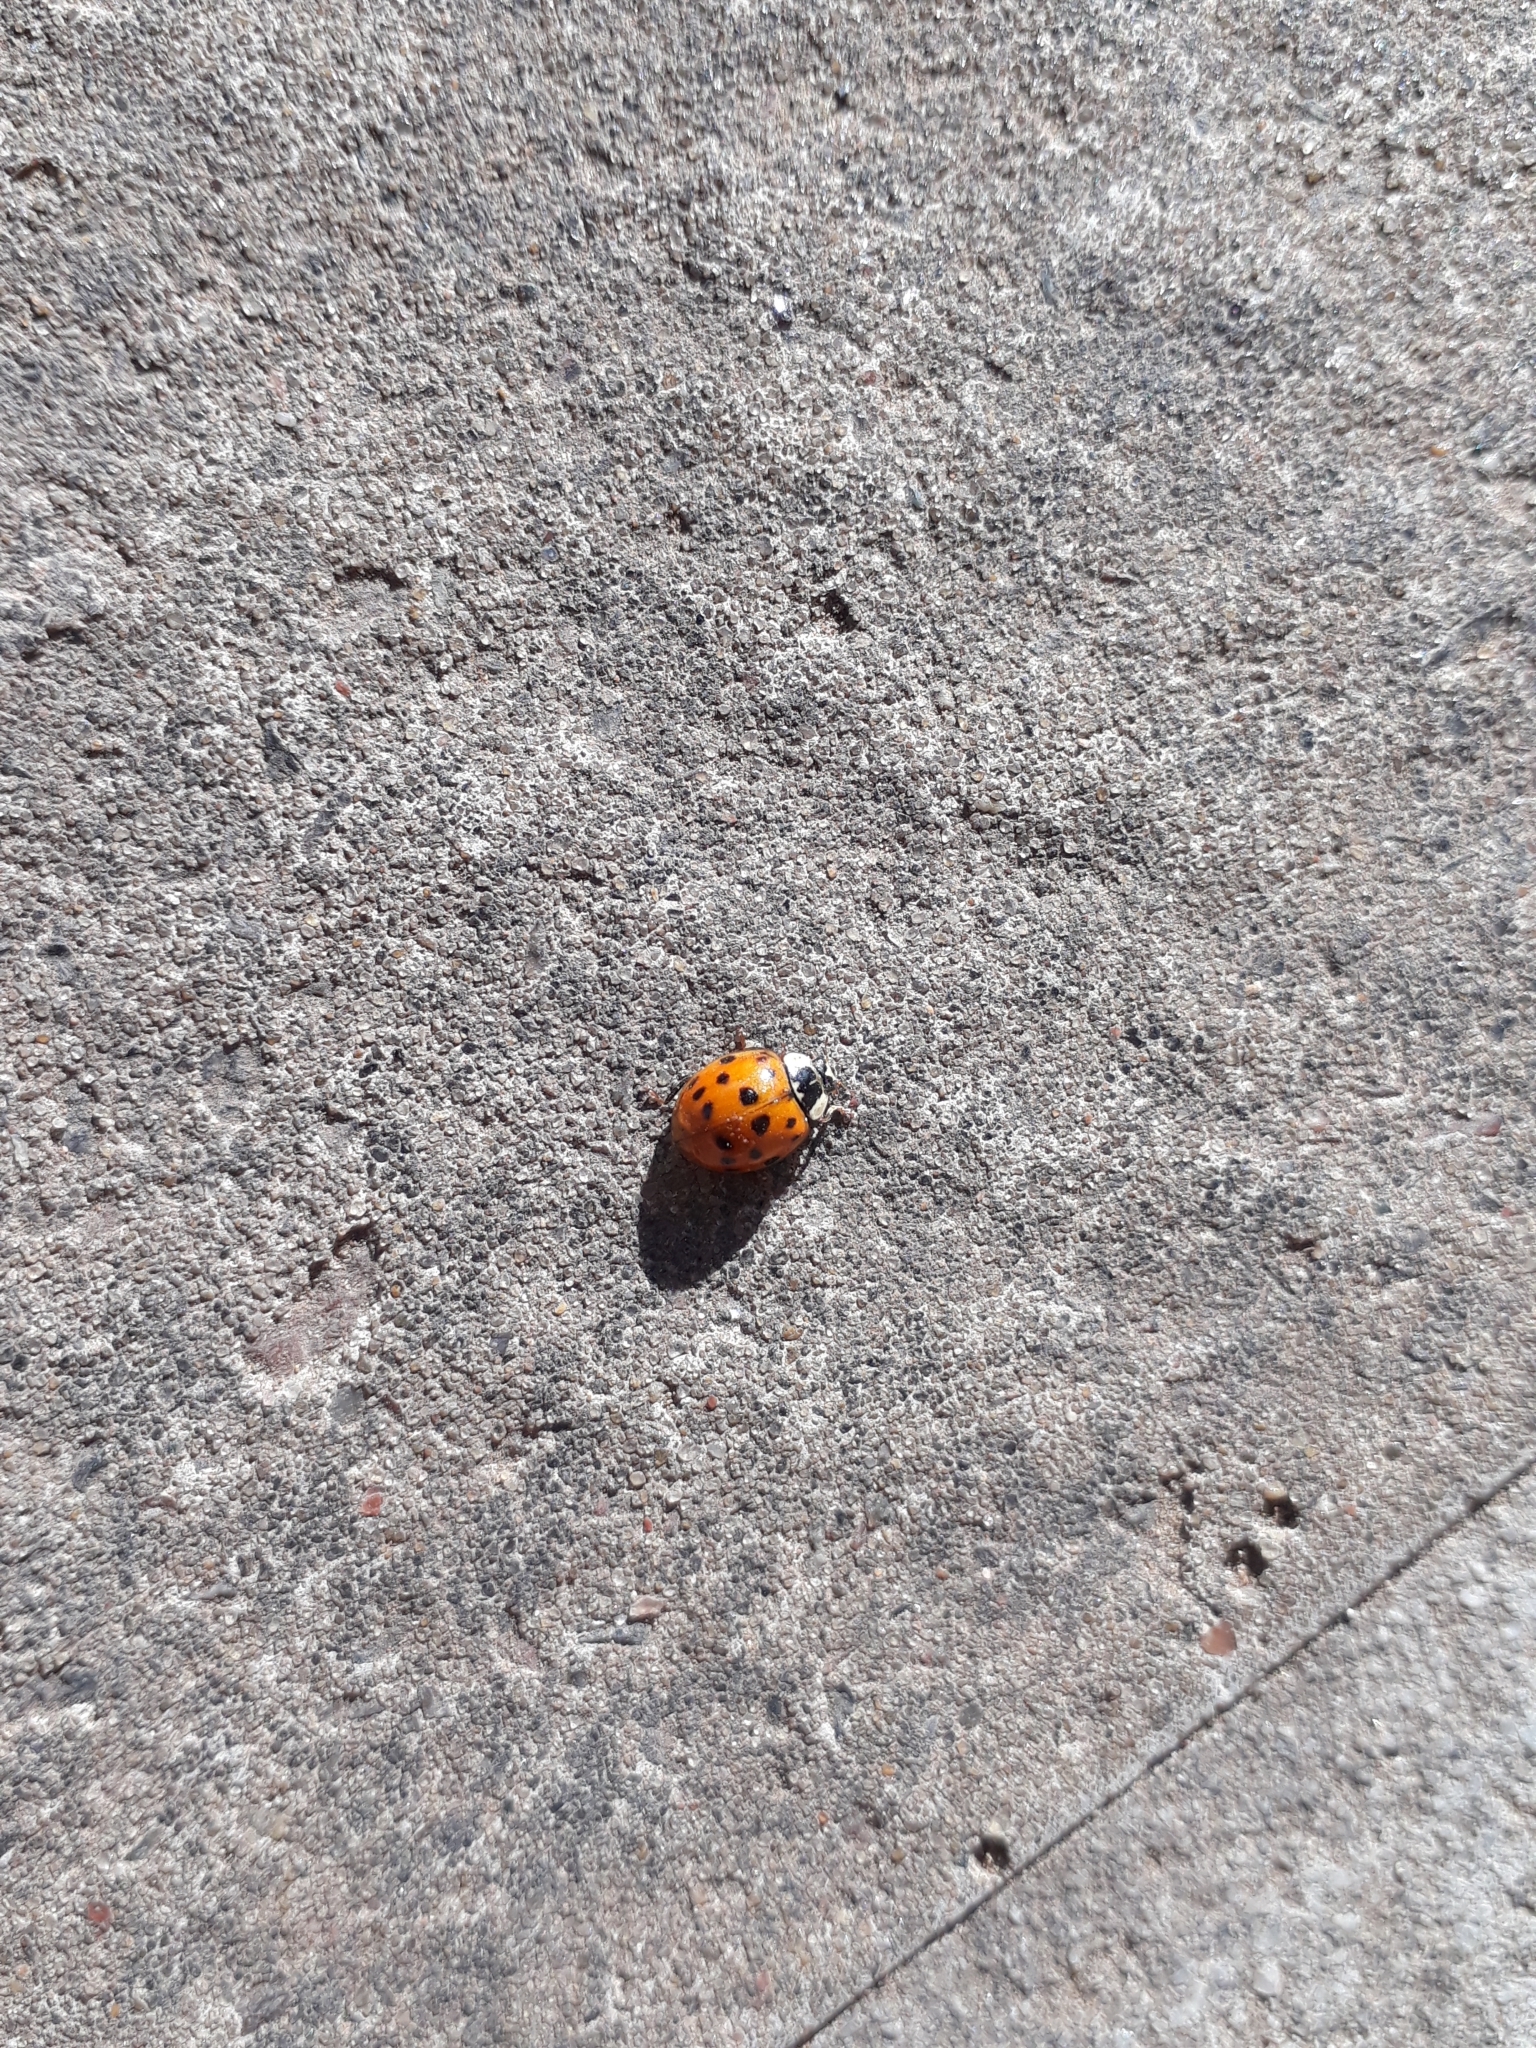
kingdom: Animalia
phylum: Arthropoda
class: Insecta
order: Coleoptera
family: Coccinellidae
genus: Harmonia
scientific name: Harmonia axyridis
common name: Harlequin ladybird
